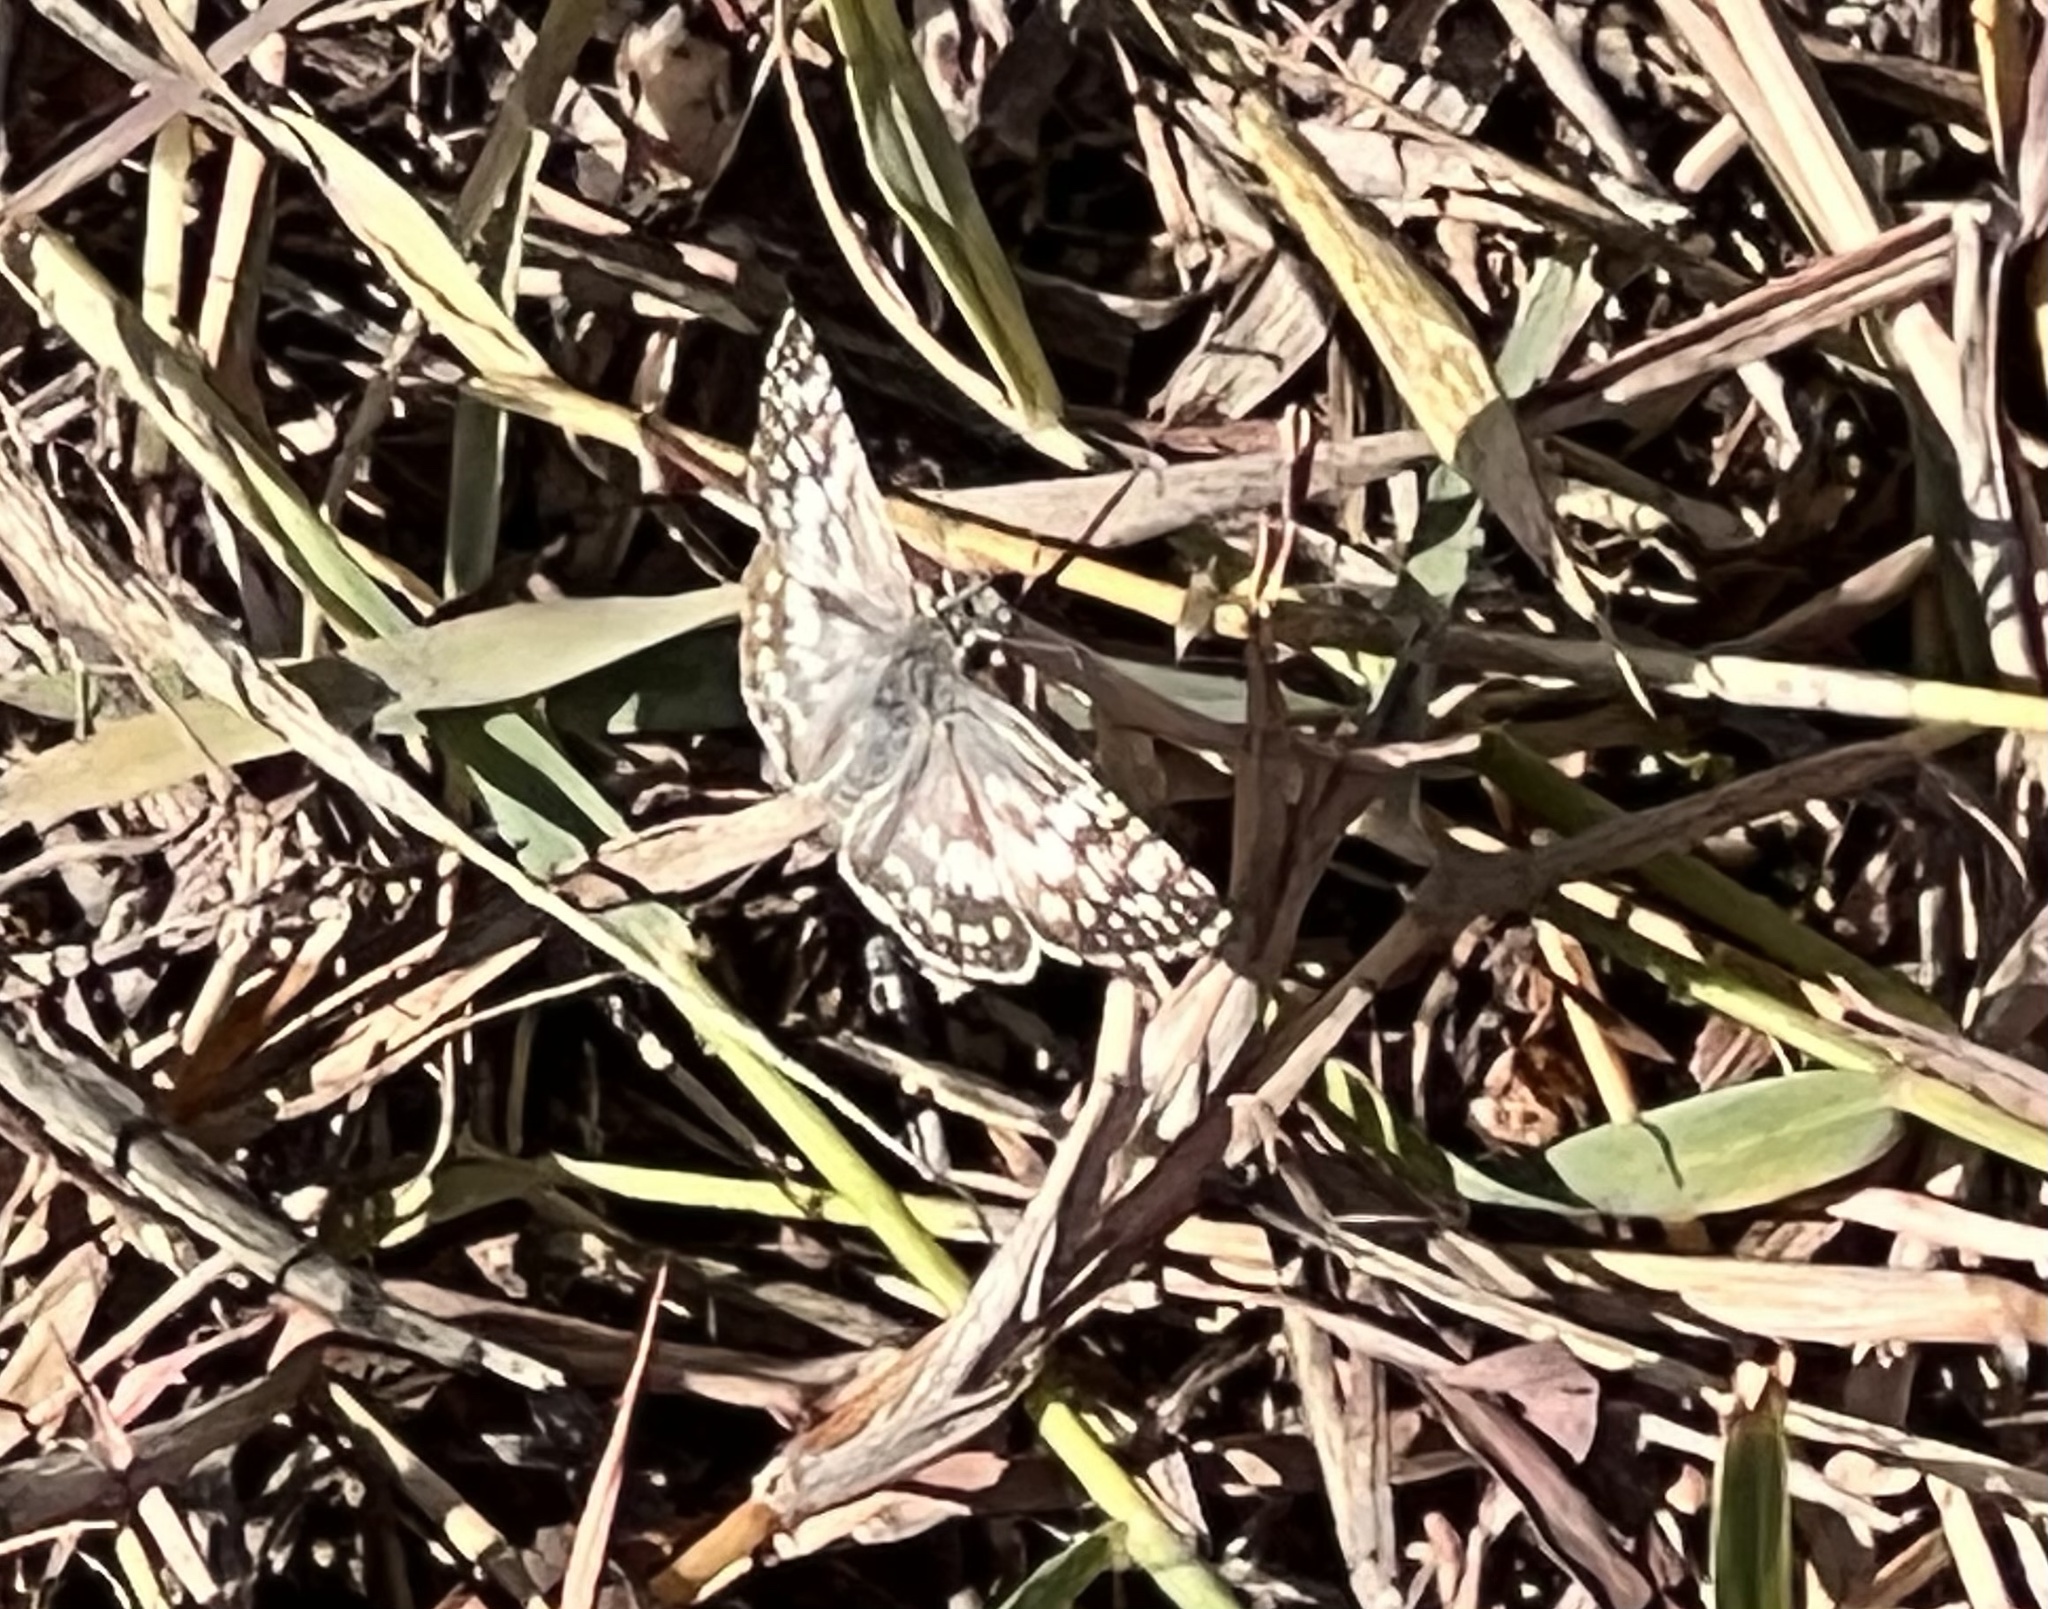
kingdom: Animalia
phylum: Arthropoda
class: Insecta
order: Lepidoptera
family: Hesperiidae
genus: Burnsius
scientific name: Burnsius albezens
